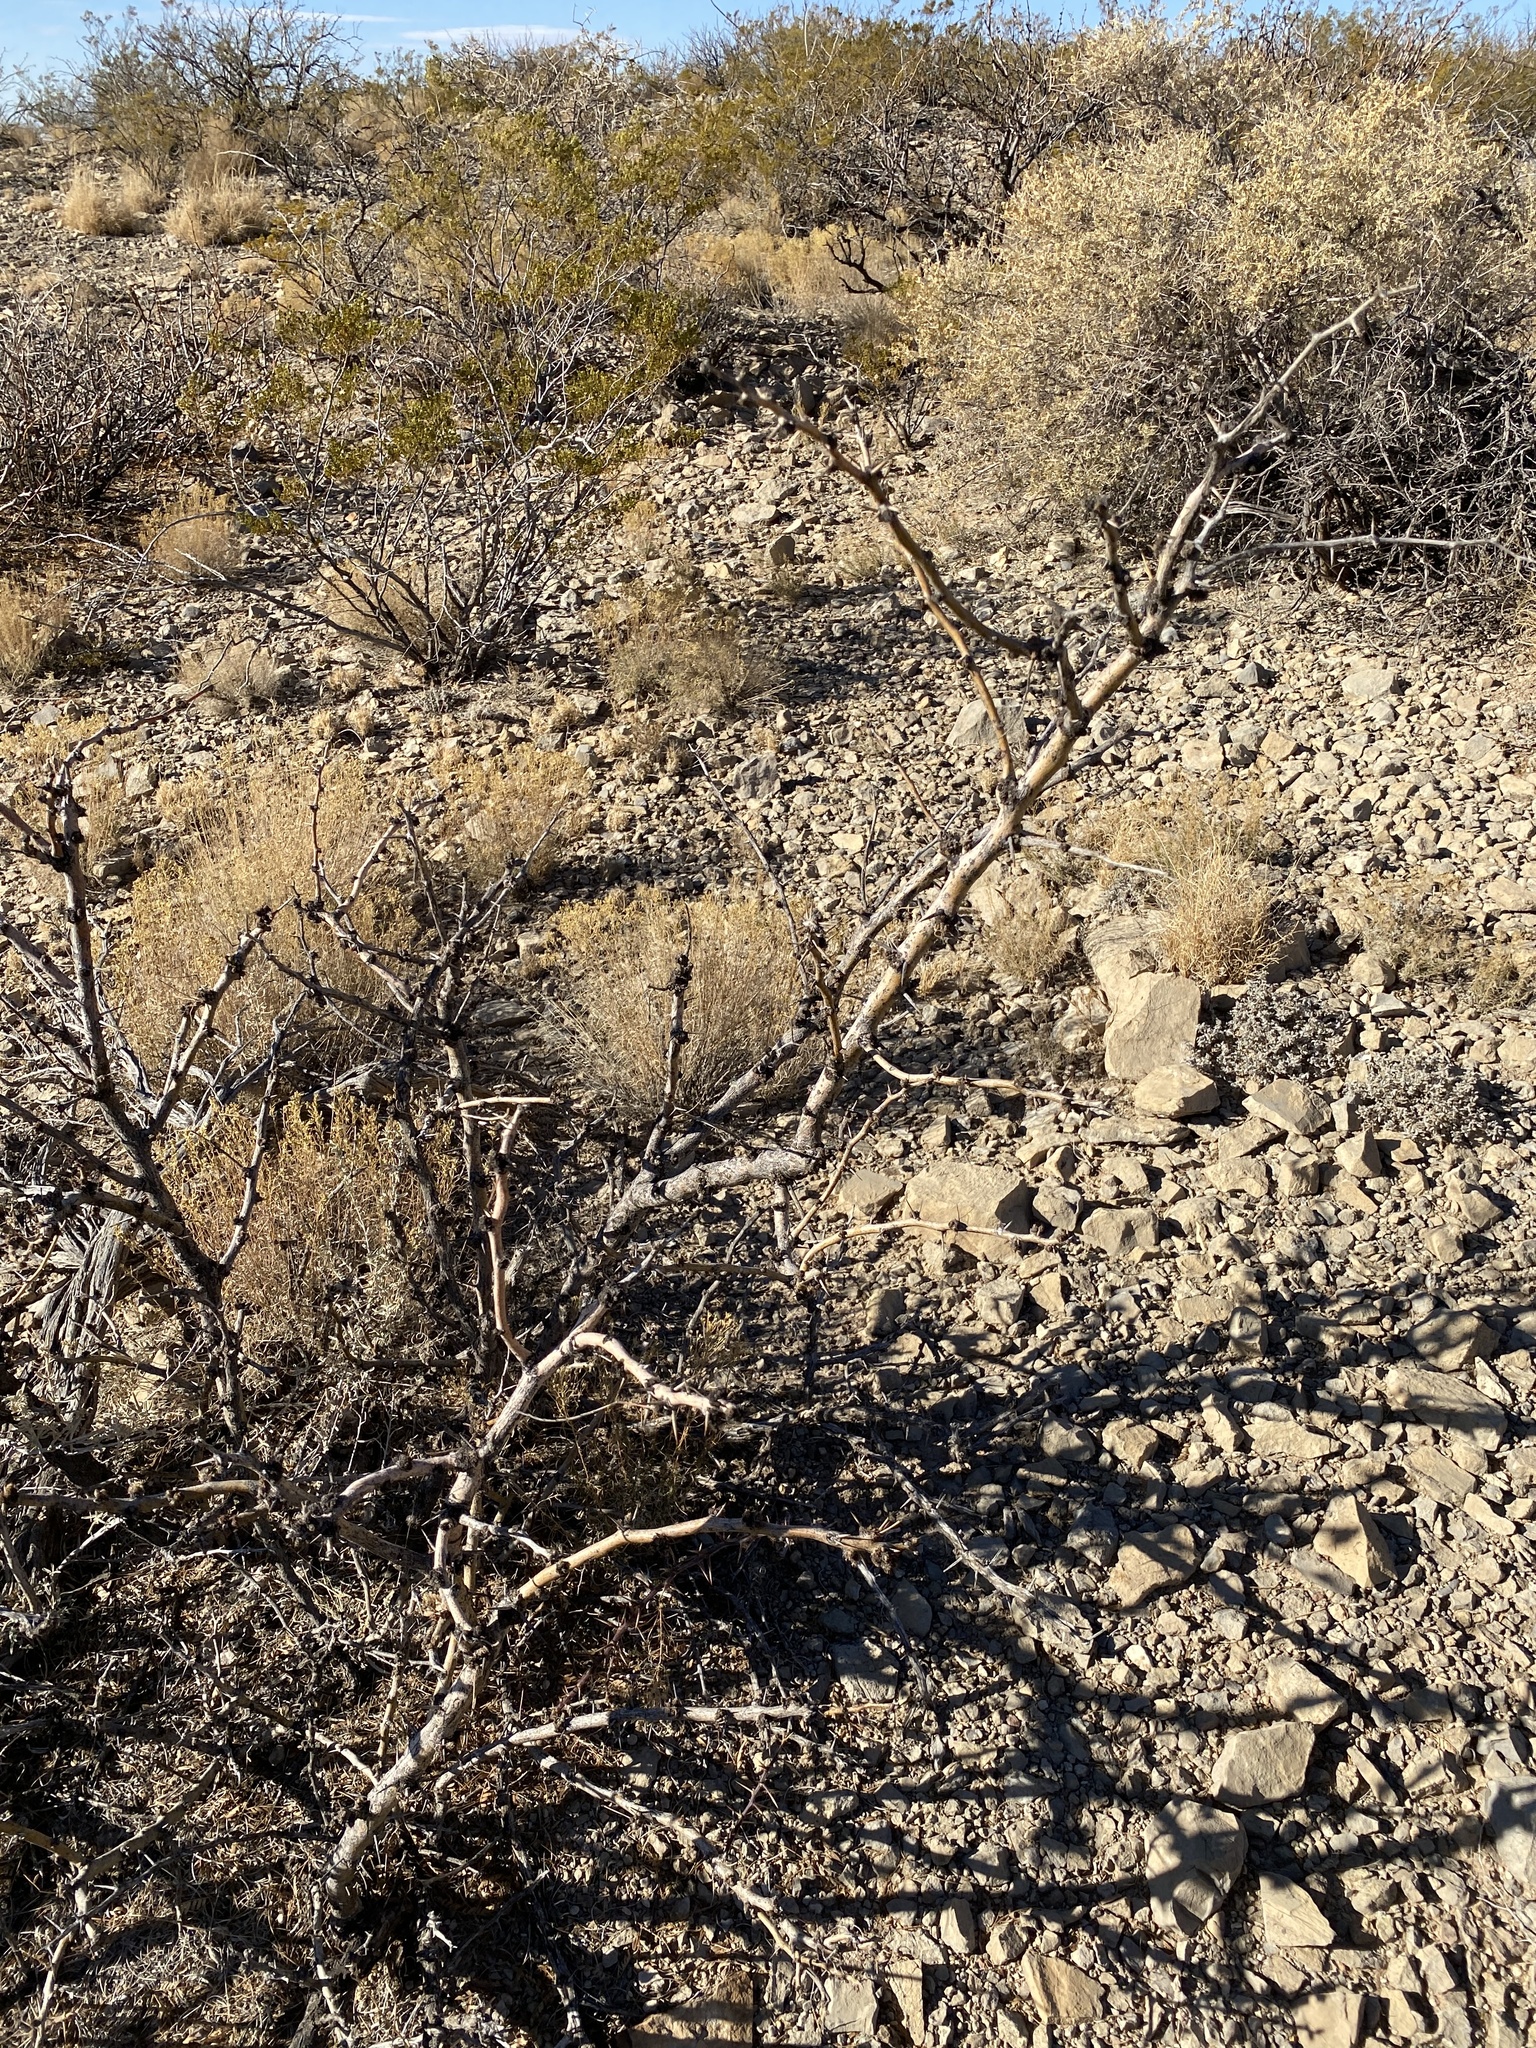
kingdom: Plantae
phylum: Tracheophyta
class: Magnoliopsida
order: Fabales
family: Fabaceae
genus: Prosopis
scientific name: Prosopis glandulosa
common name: Honey mesquite
